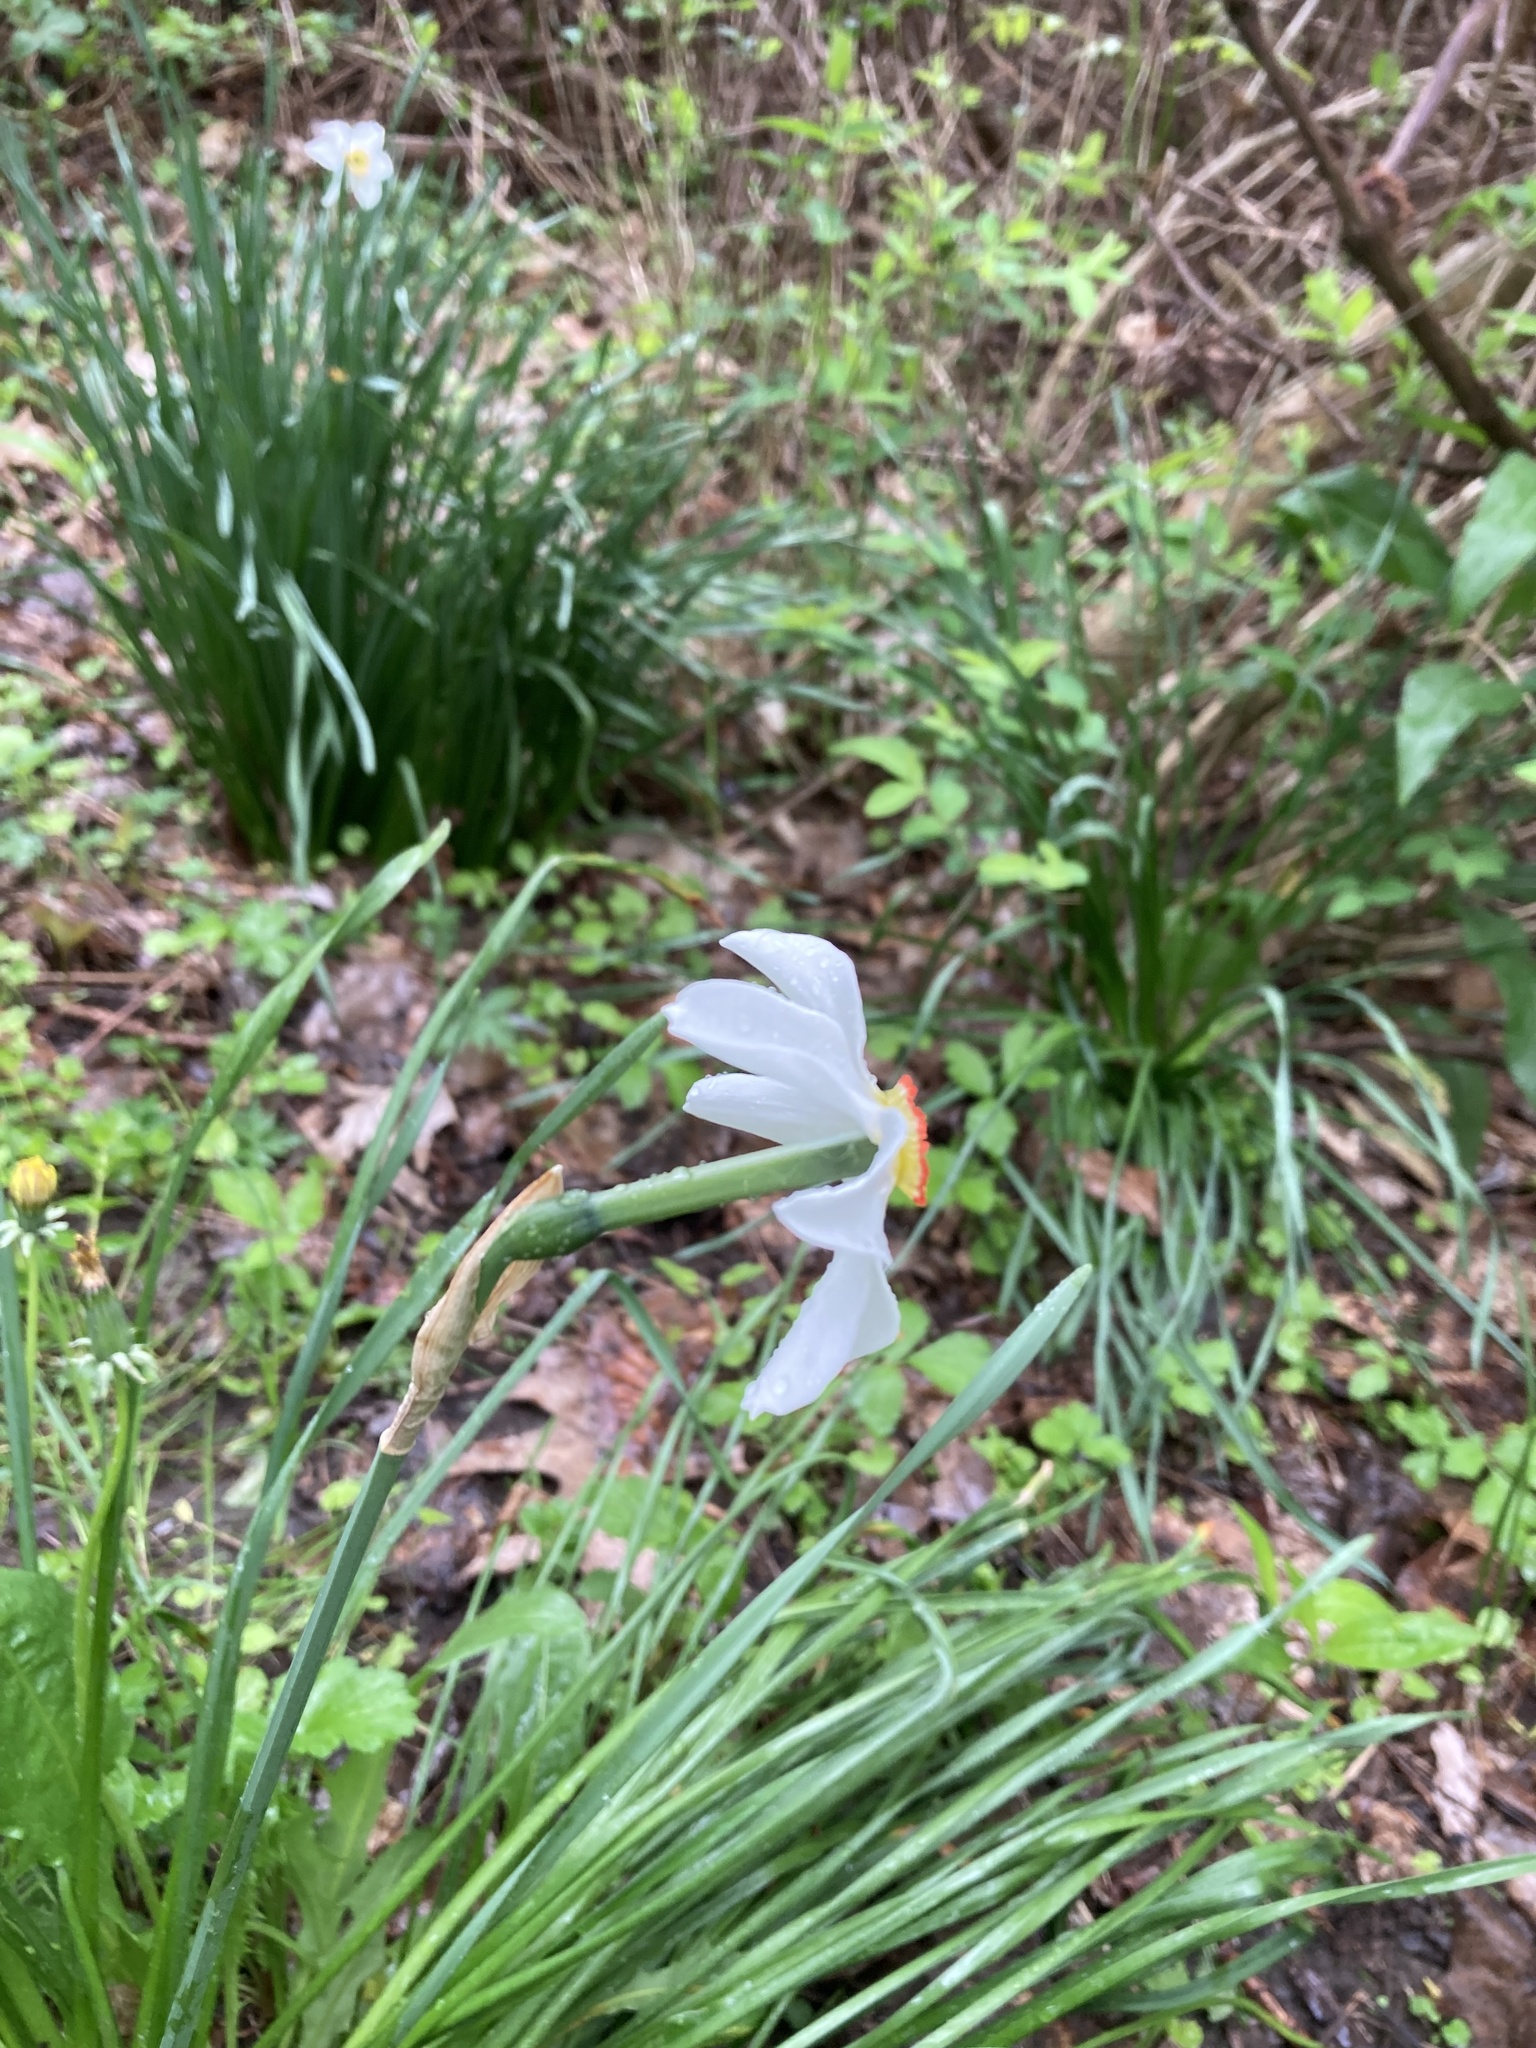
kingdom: Plantae
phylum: Tracheophyta
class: Liliopsida
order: Asparagales
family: Amaryllidaceae
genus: Narcissus
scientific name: Narcissus poeticus
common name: Pheasant's-eye daffodil
